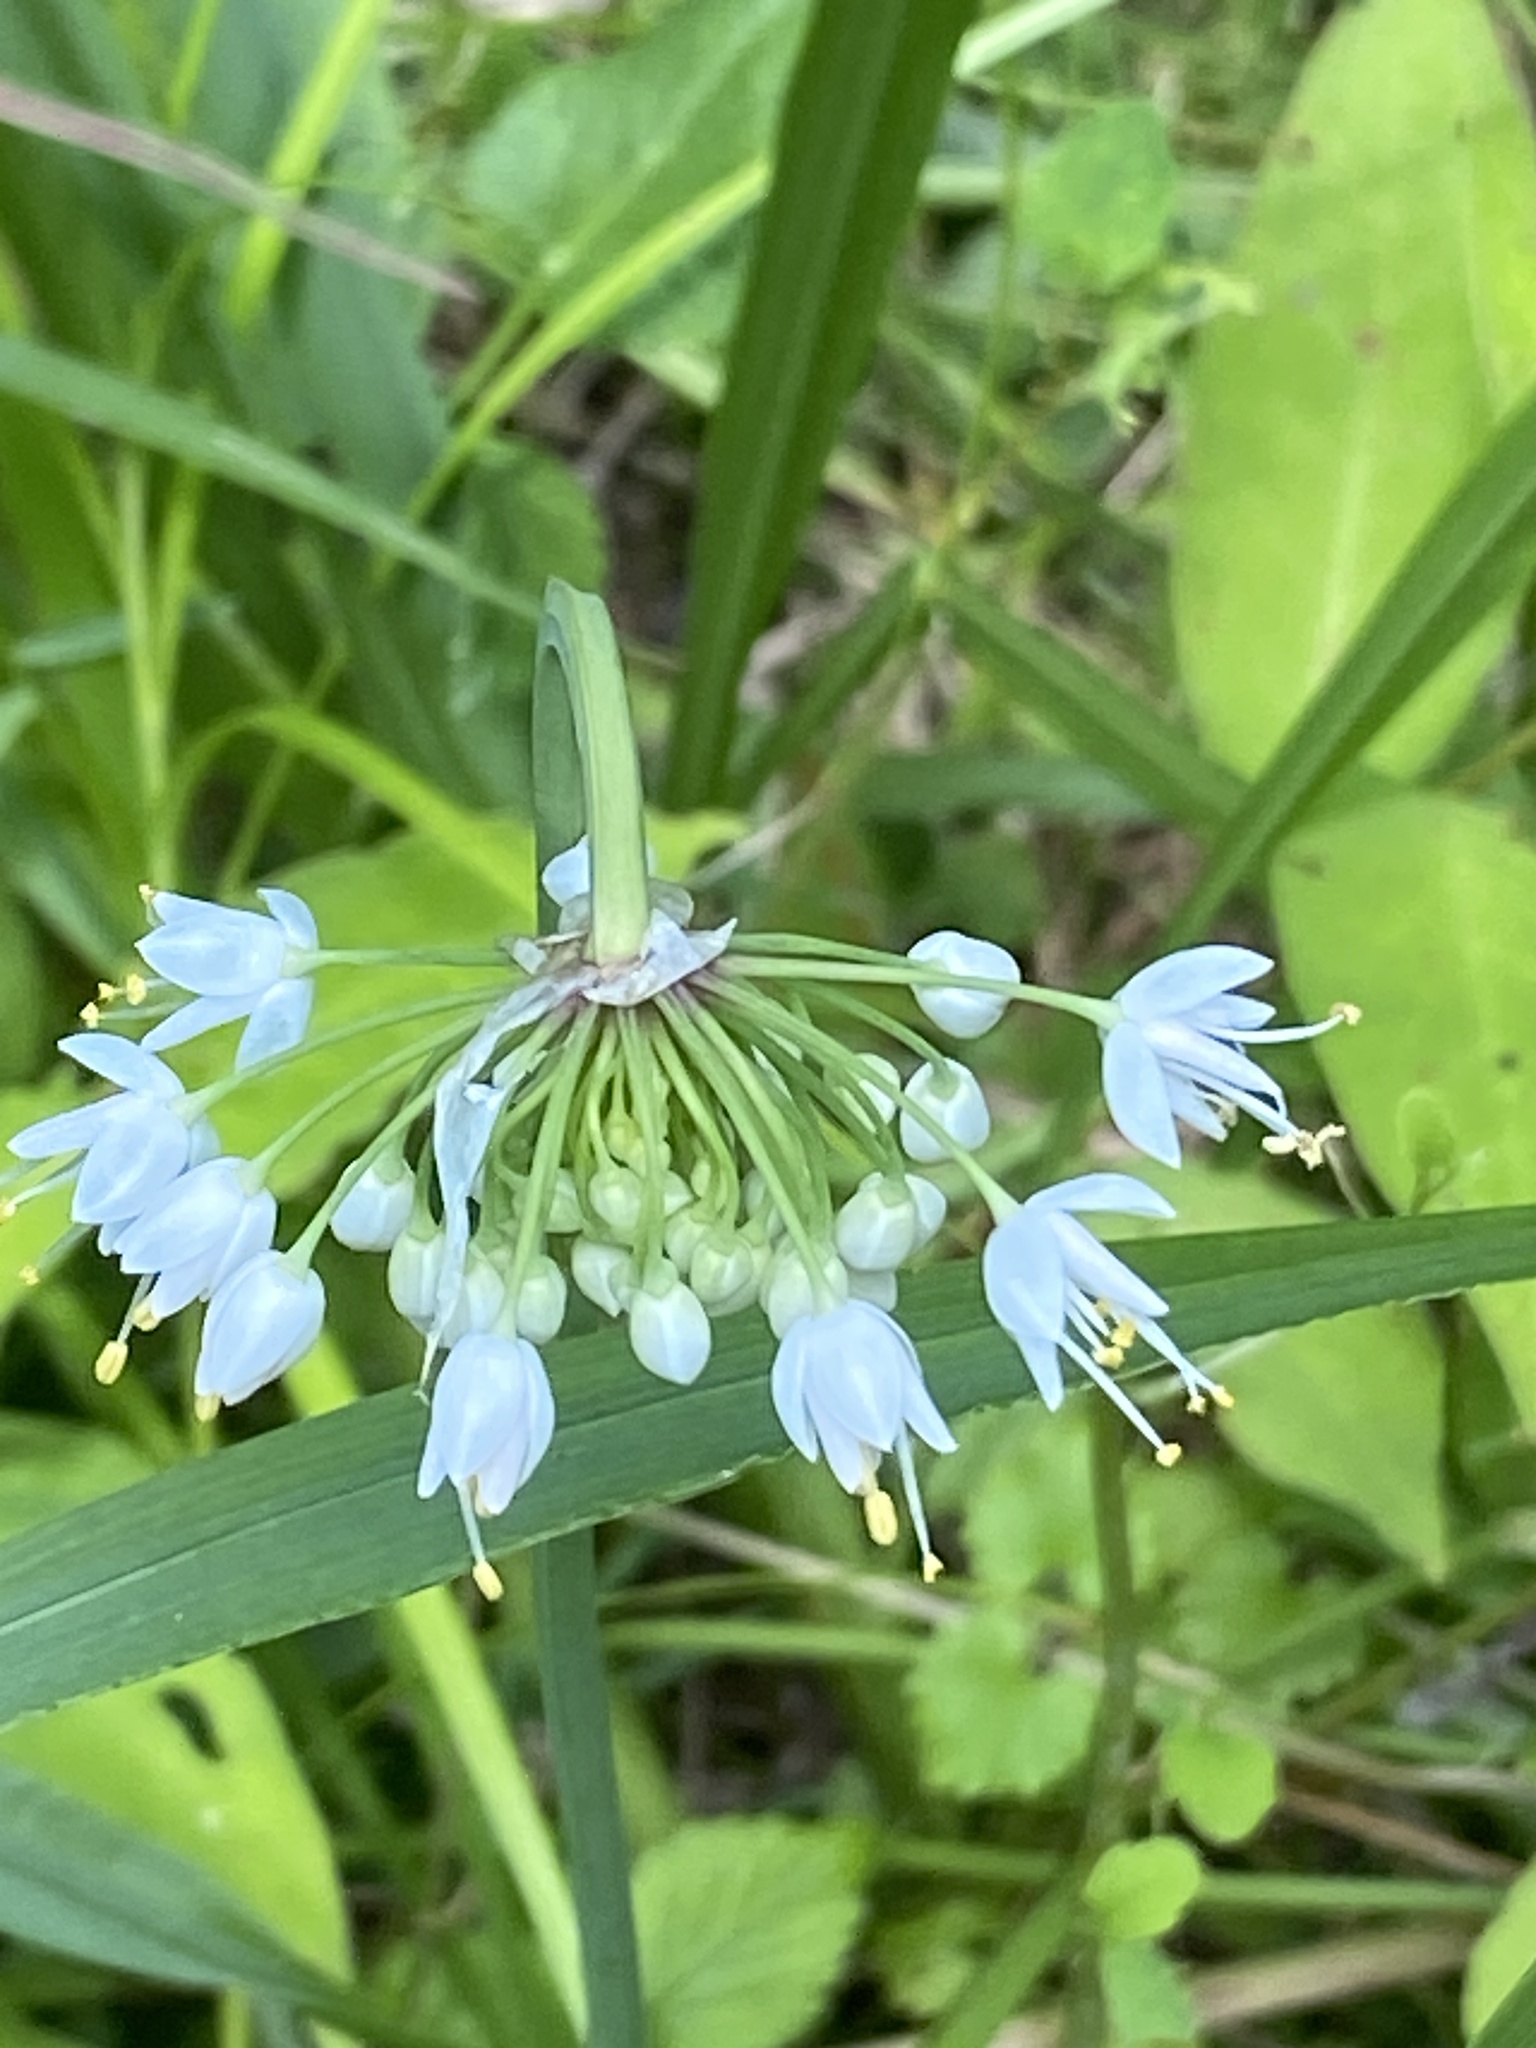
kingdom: Plantae
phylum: Tracheophyta
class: Liliopsida
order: Asparagales
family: Amaryllidaceae
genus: Allium
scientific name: Allium cernuum
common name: Nodding onion
